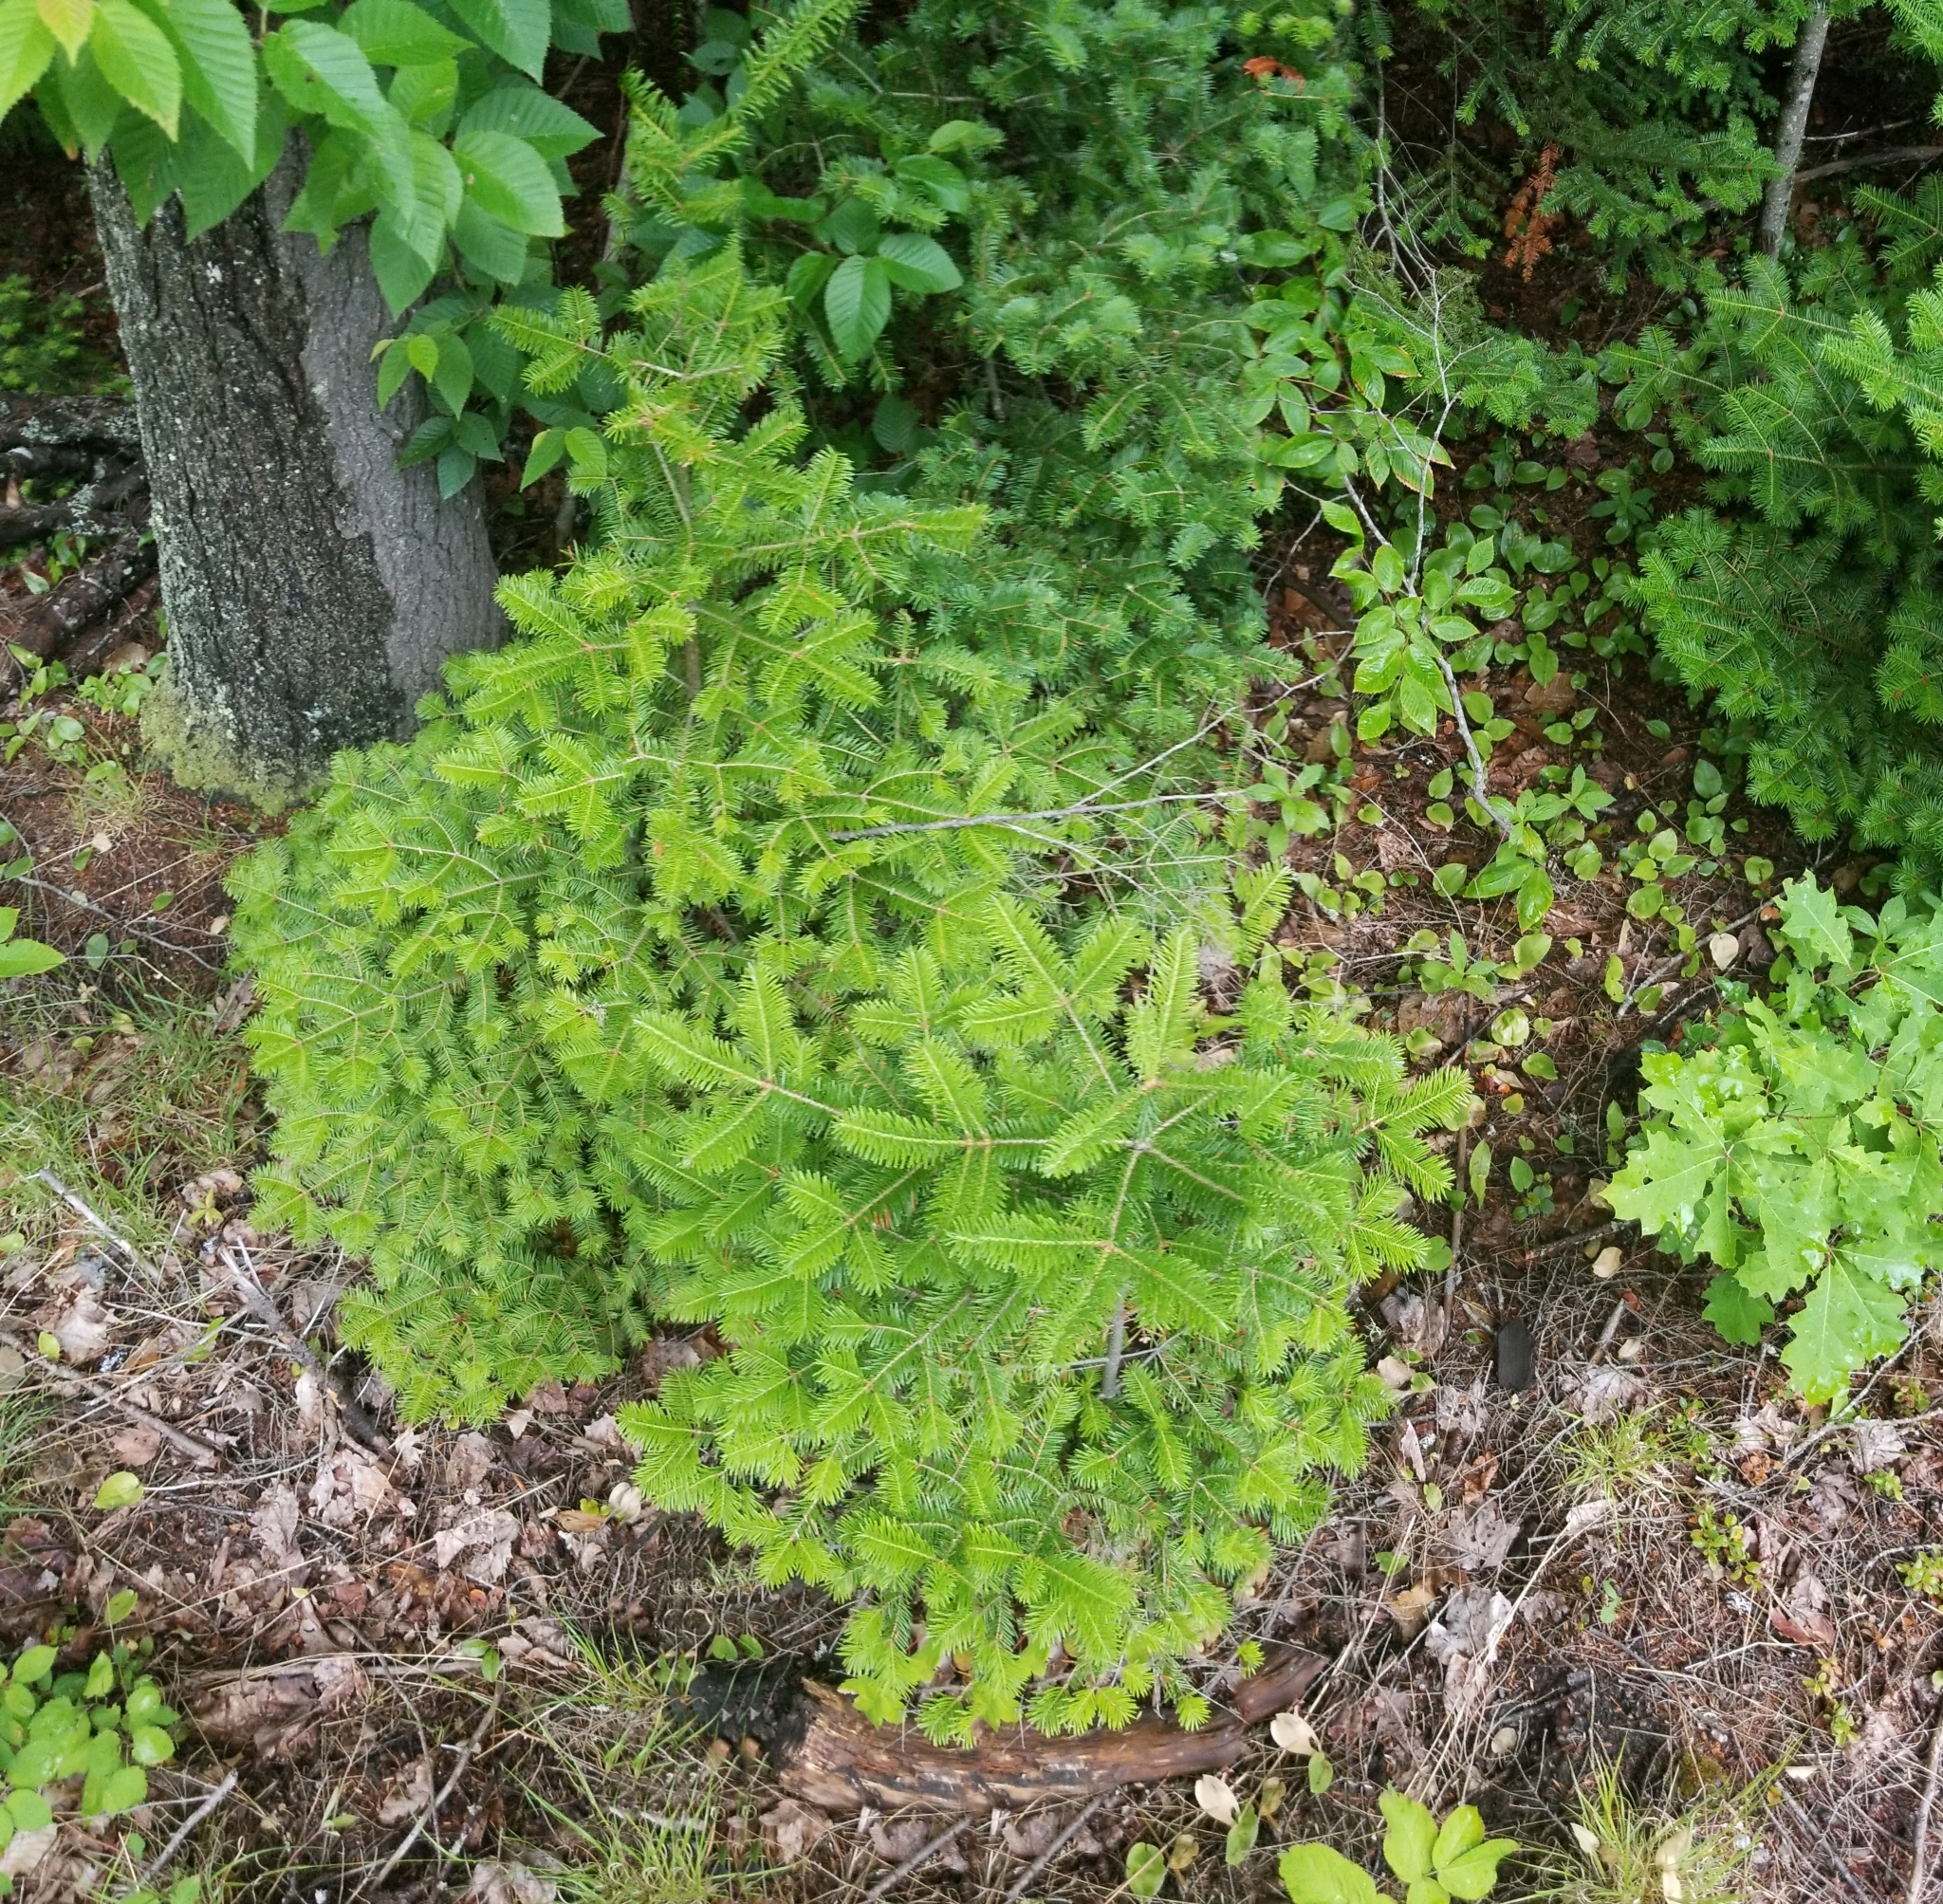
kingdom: Plantae
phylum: Tracheophyta
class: Pinopsida
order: Pinales
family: Pinaceae
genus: Abies
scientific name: Abies balsamea
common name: Balsam fir
